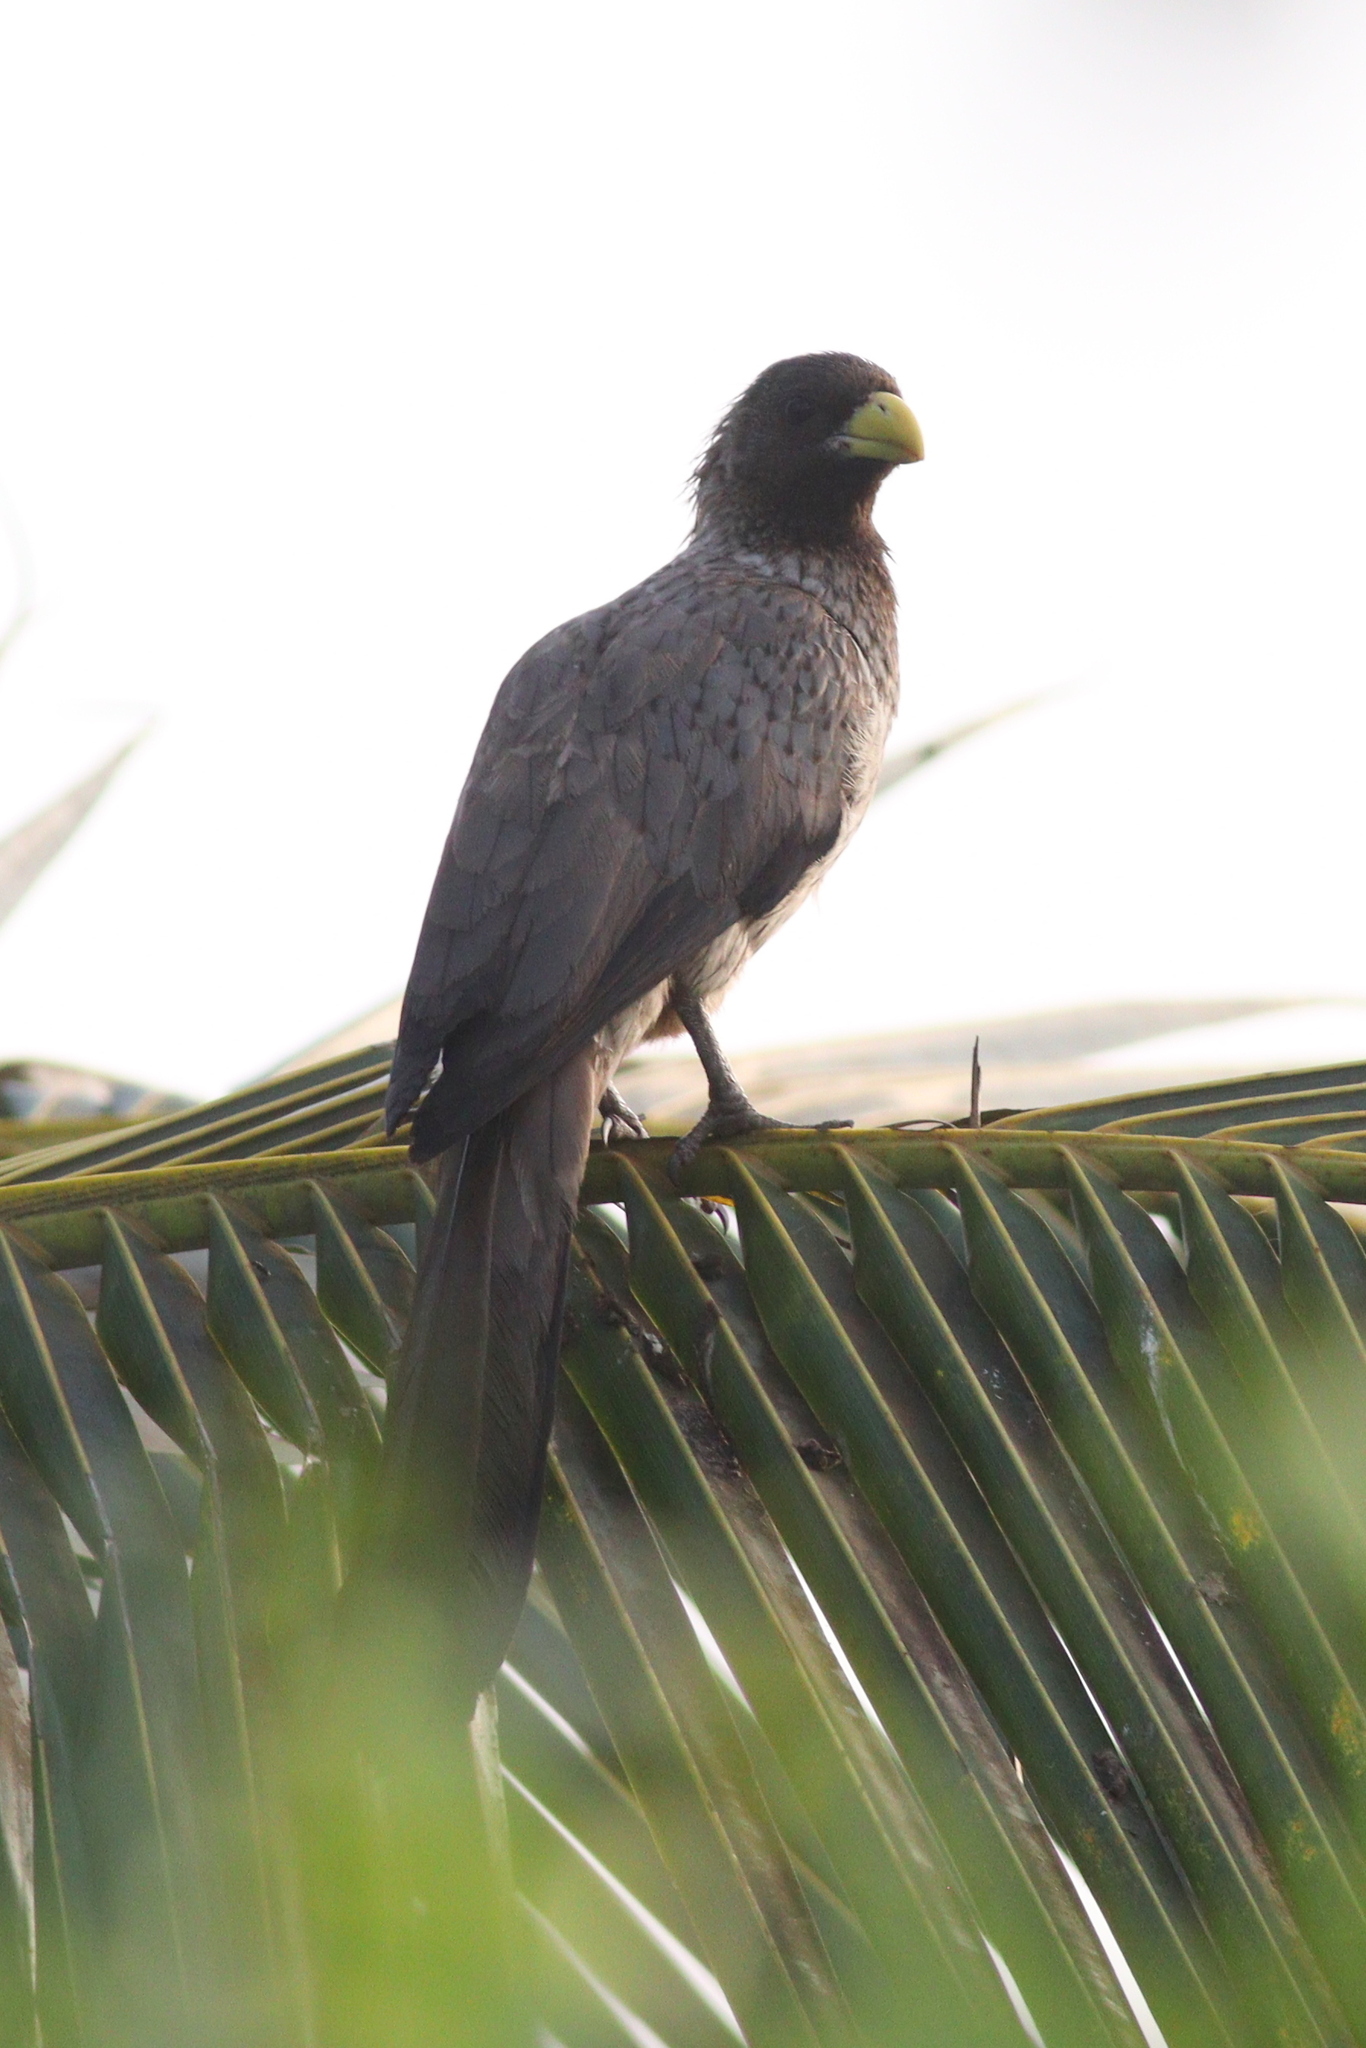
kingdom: Animalia
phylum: Chordata
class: Aves
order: Musophagiformes
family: Musophagidae
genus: Crinifer
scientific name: Crinifer piscator
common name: Western plantain-eater
